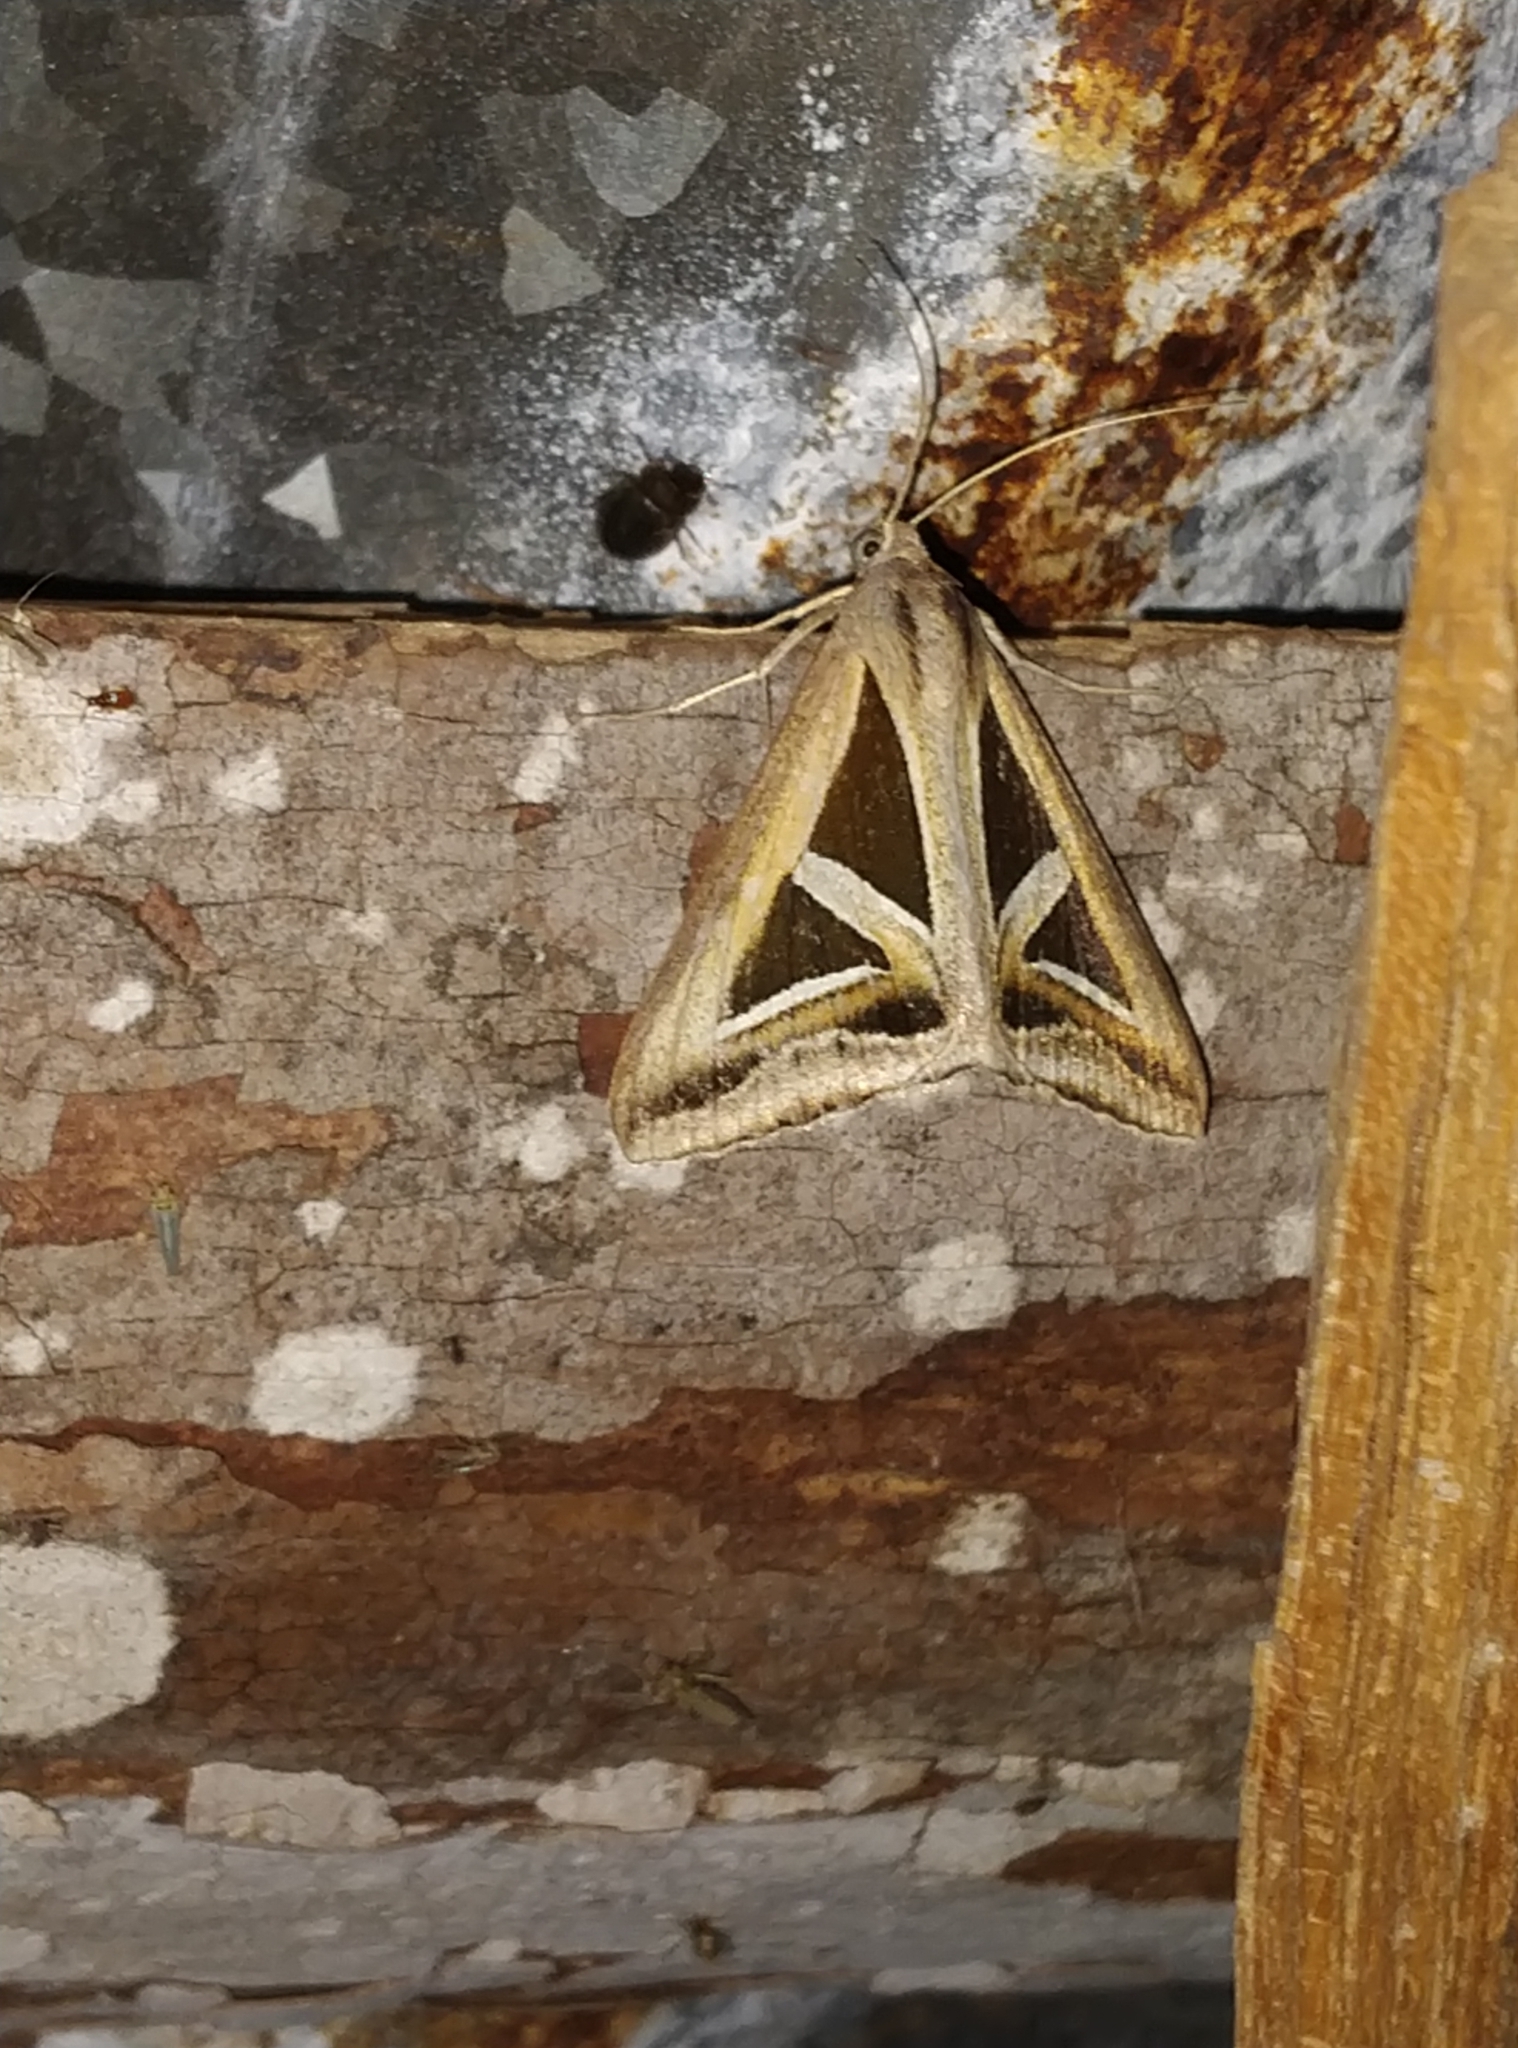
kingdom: Animalia
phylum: Arthropoda
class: Insecta
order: Lepidoptera
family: Erebidae
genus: Trigonodes
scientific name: Trigonodes hyppasia
